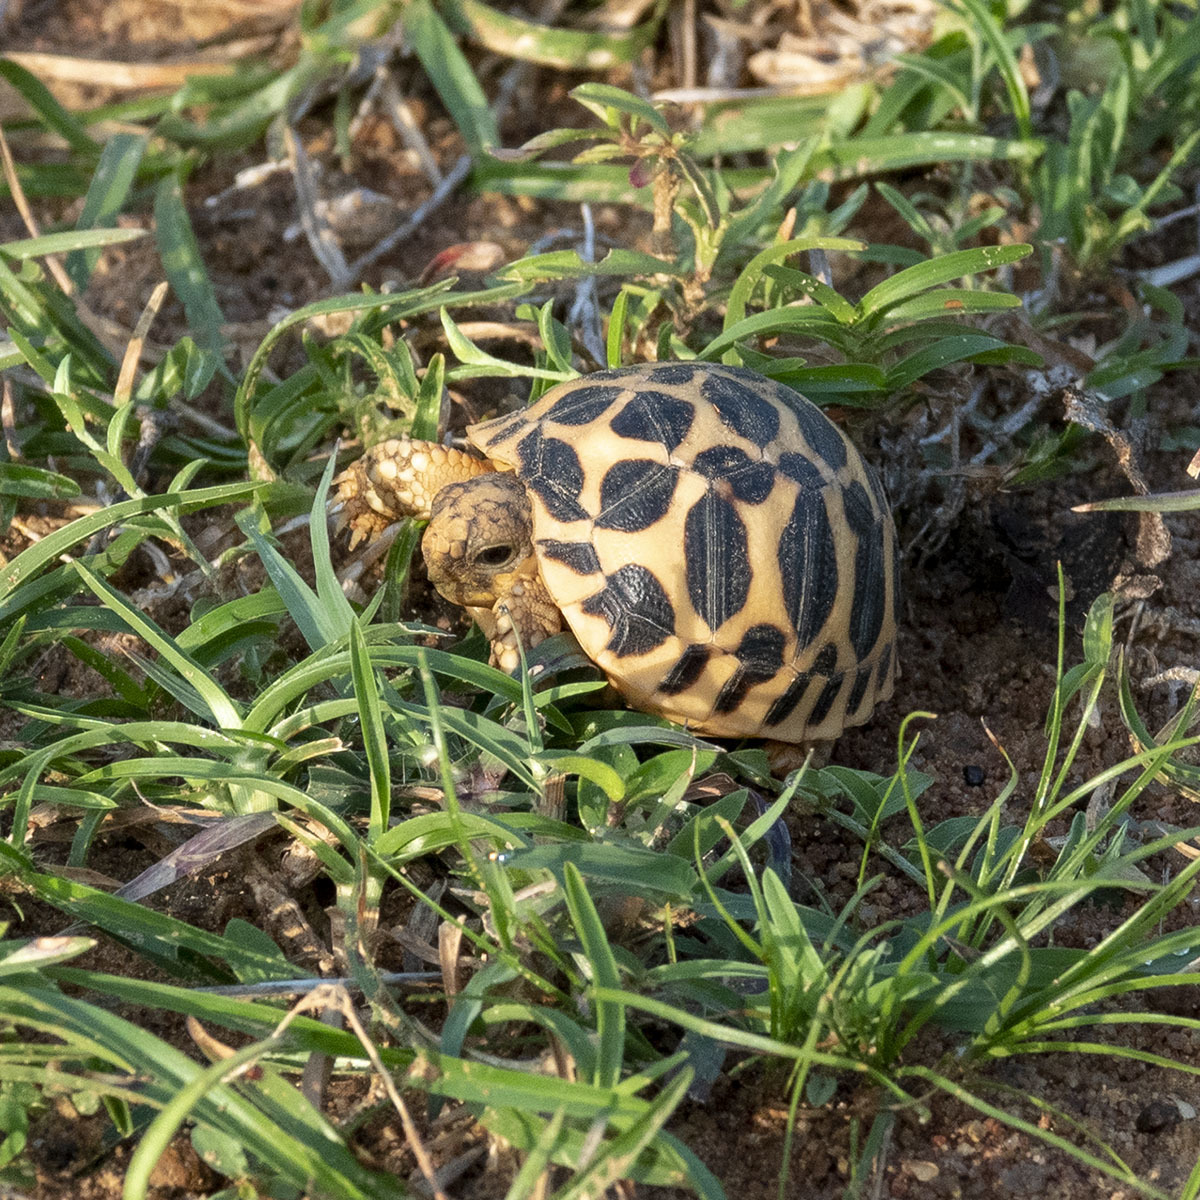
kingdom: Animalia
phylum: Chordata
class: Testudines
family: Testudinidae
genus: Geochelone
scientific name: Geochelone elegans
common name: Indian star tortoise
